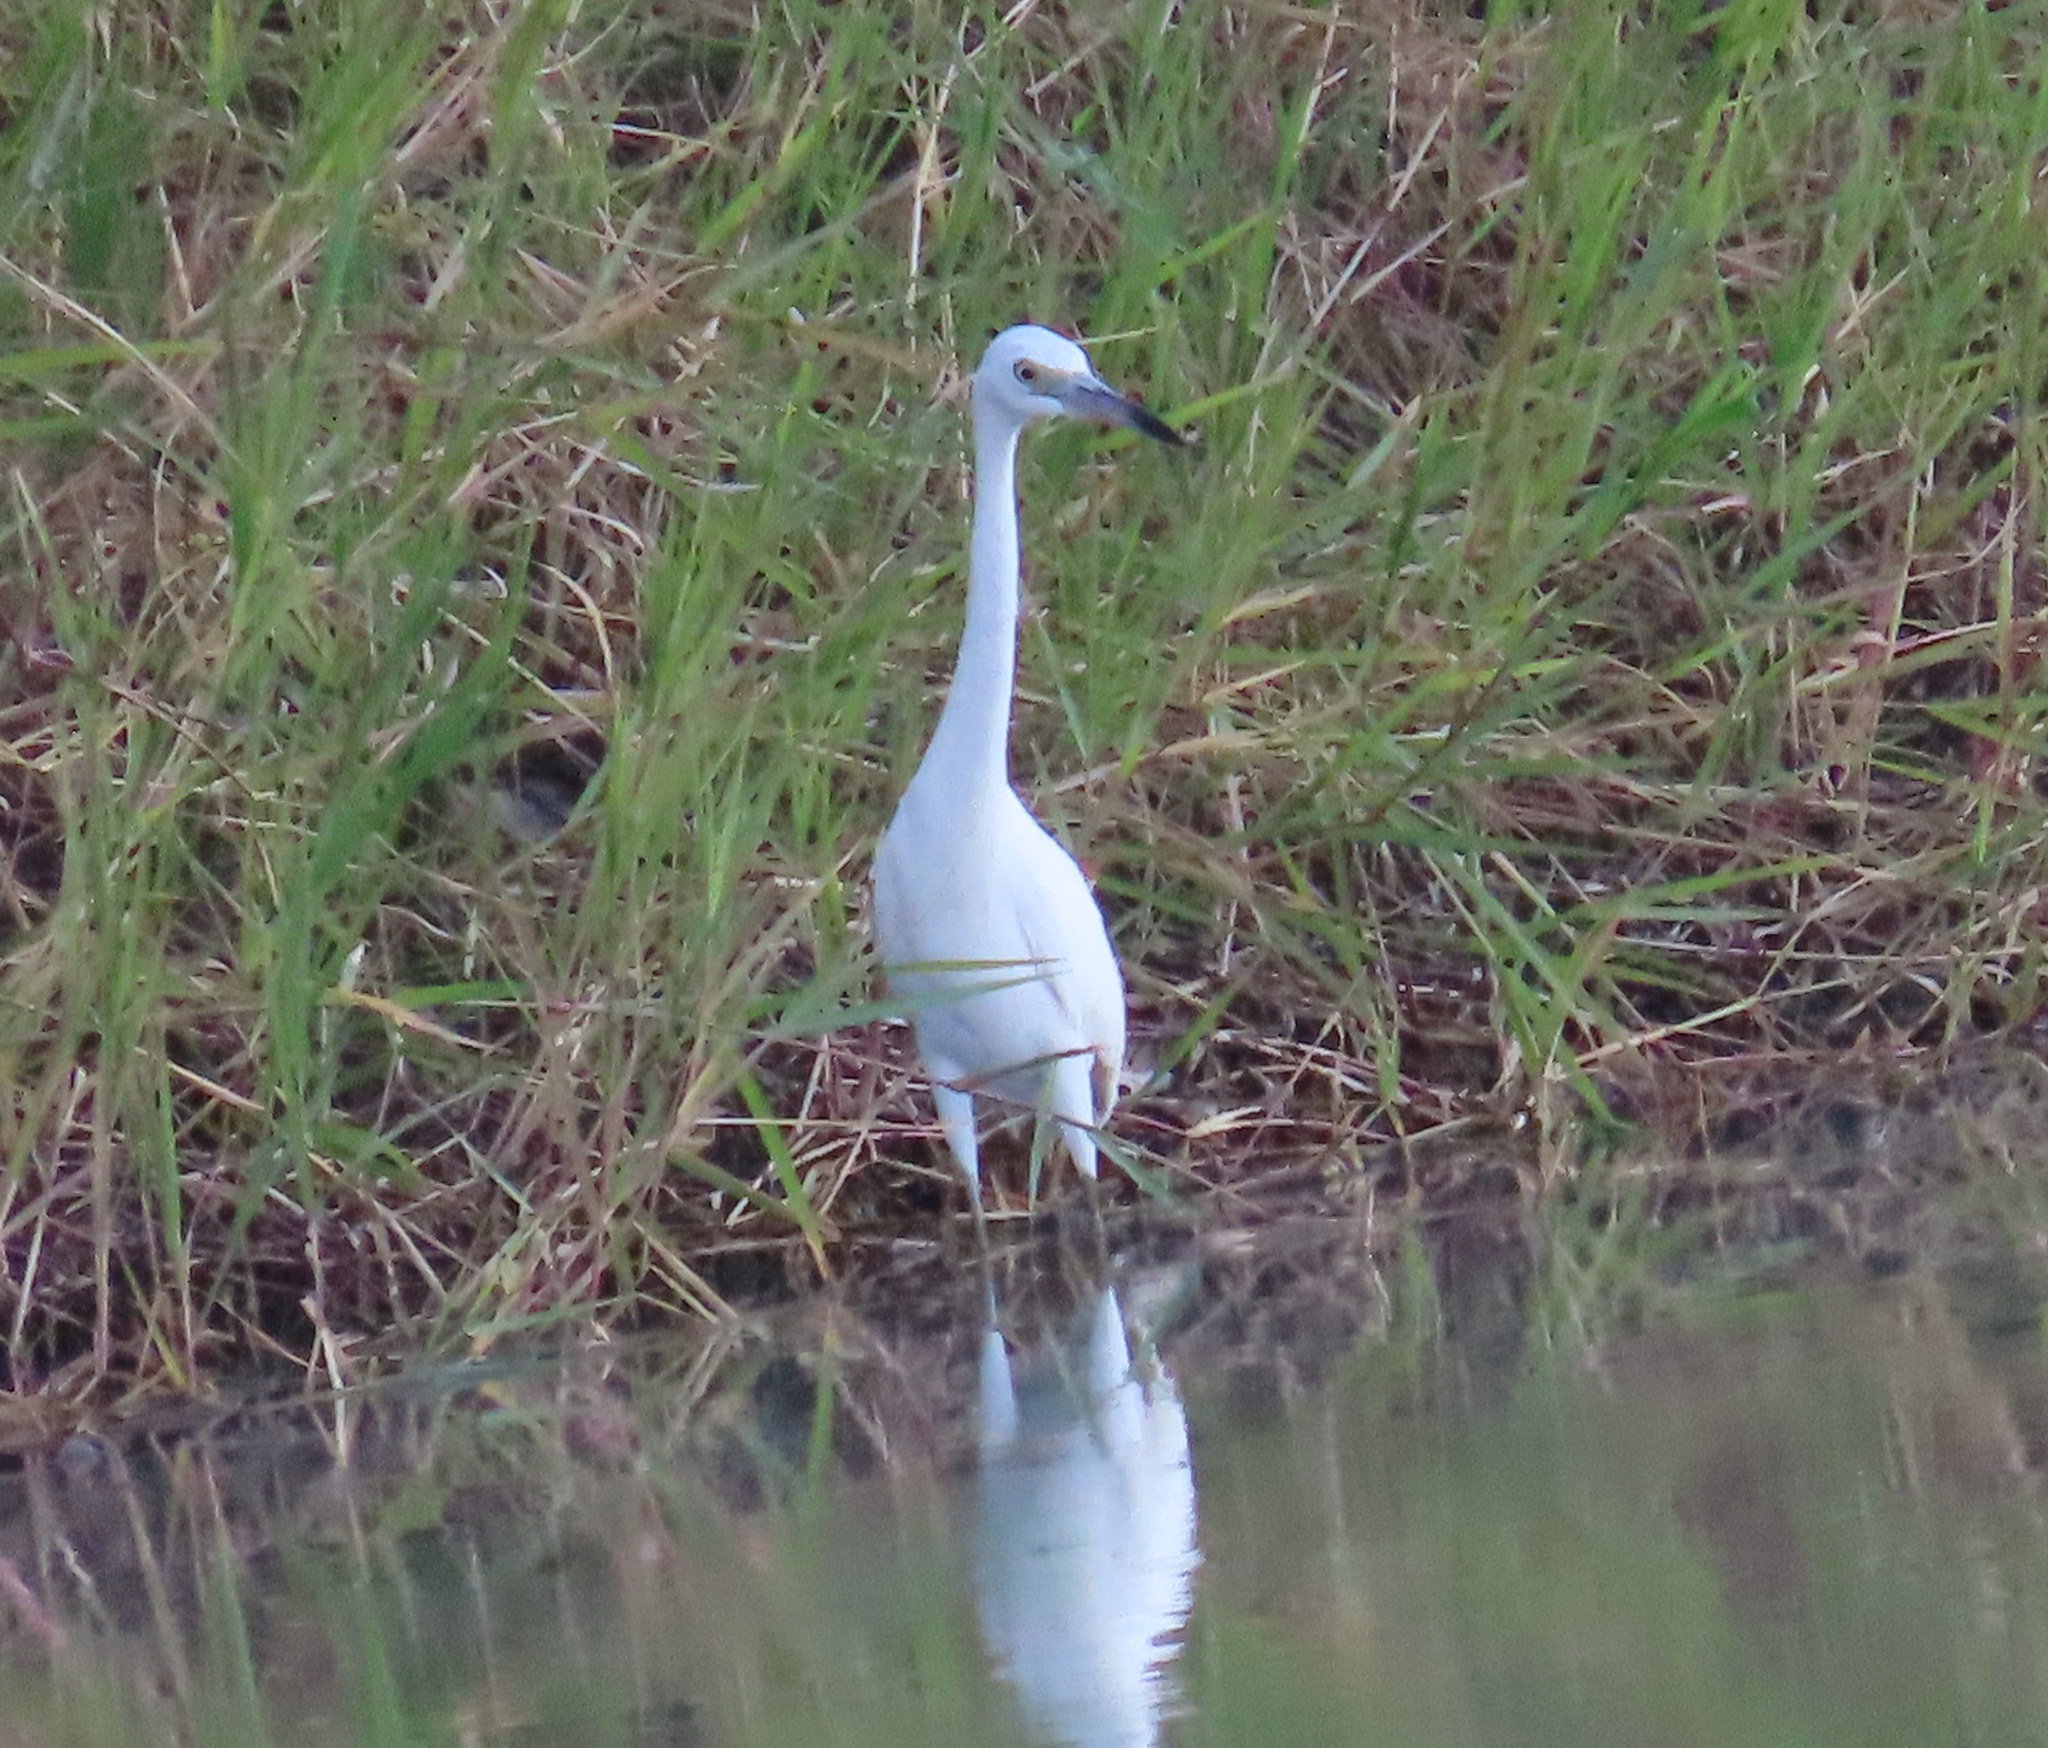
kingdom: Animalia
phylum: Chordata
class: Aves
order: Pelecaniformes
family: Ardeidae
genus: Egretta
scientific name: Egretta caerulea
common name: Little blue heron
